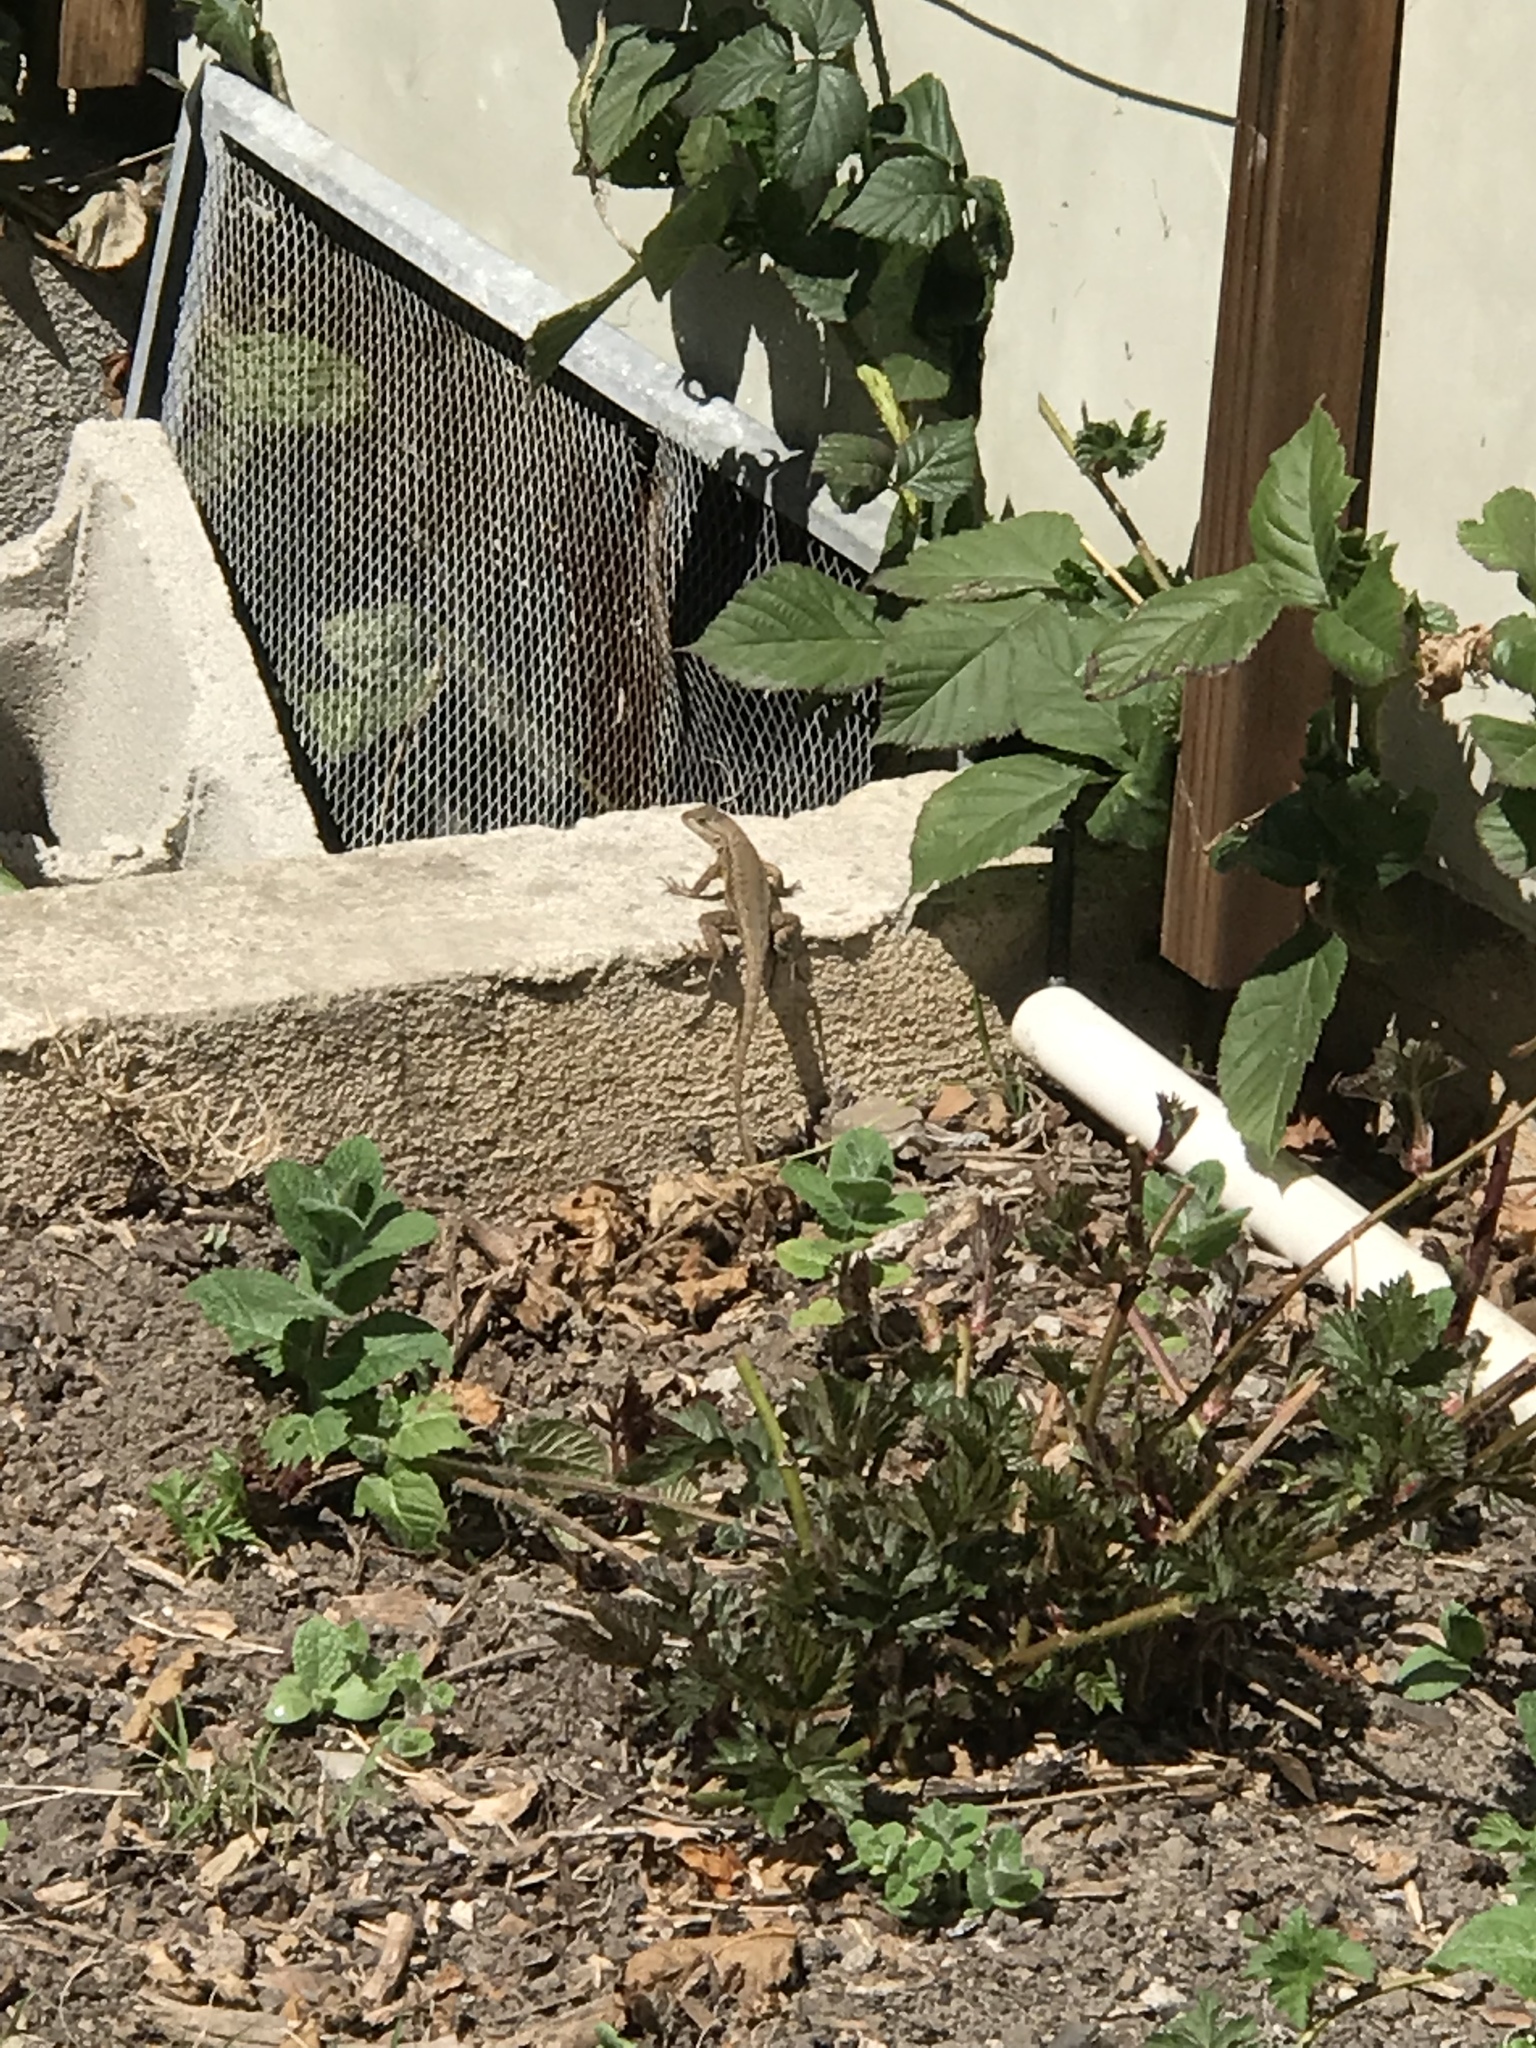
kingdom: Animalia
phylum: Chordata
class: Squamata
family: Phrynosomatidae
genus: Sceloporus
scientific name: Sceloporus occidentalis
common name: Western fence lizard
